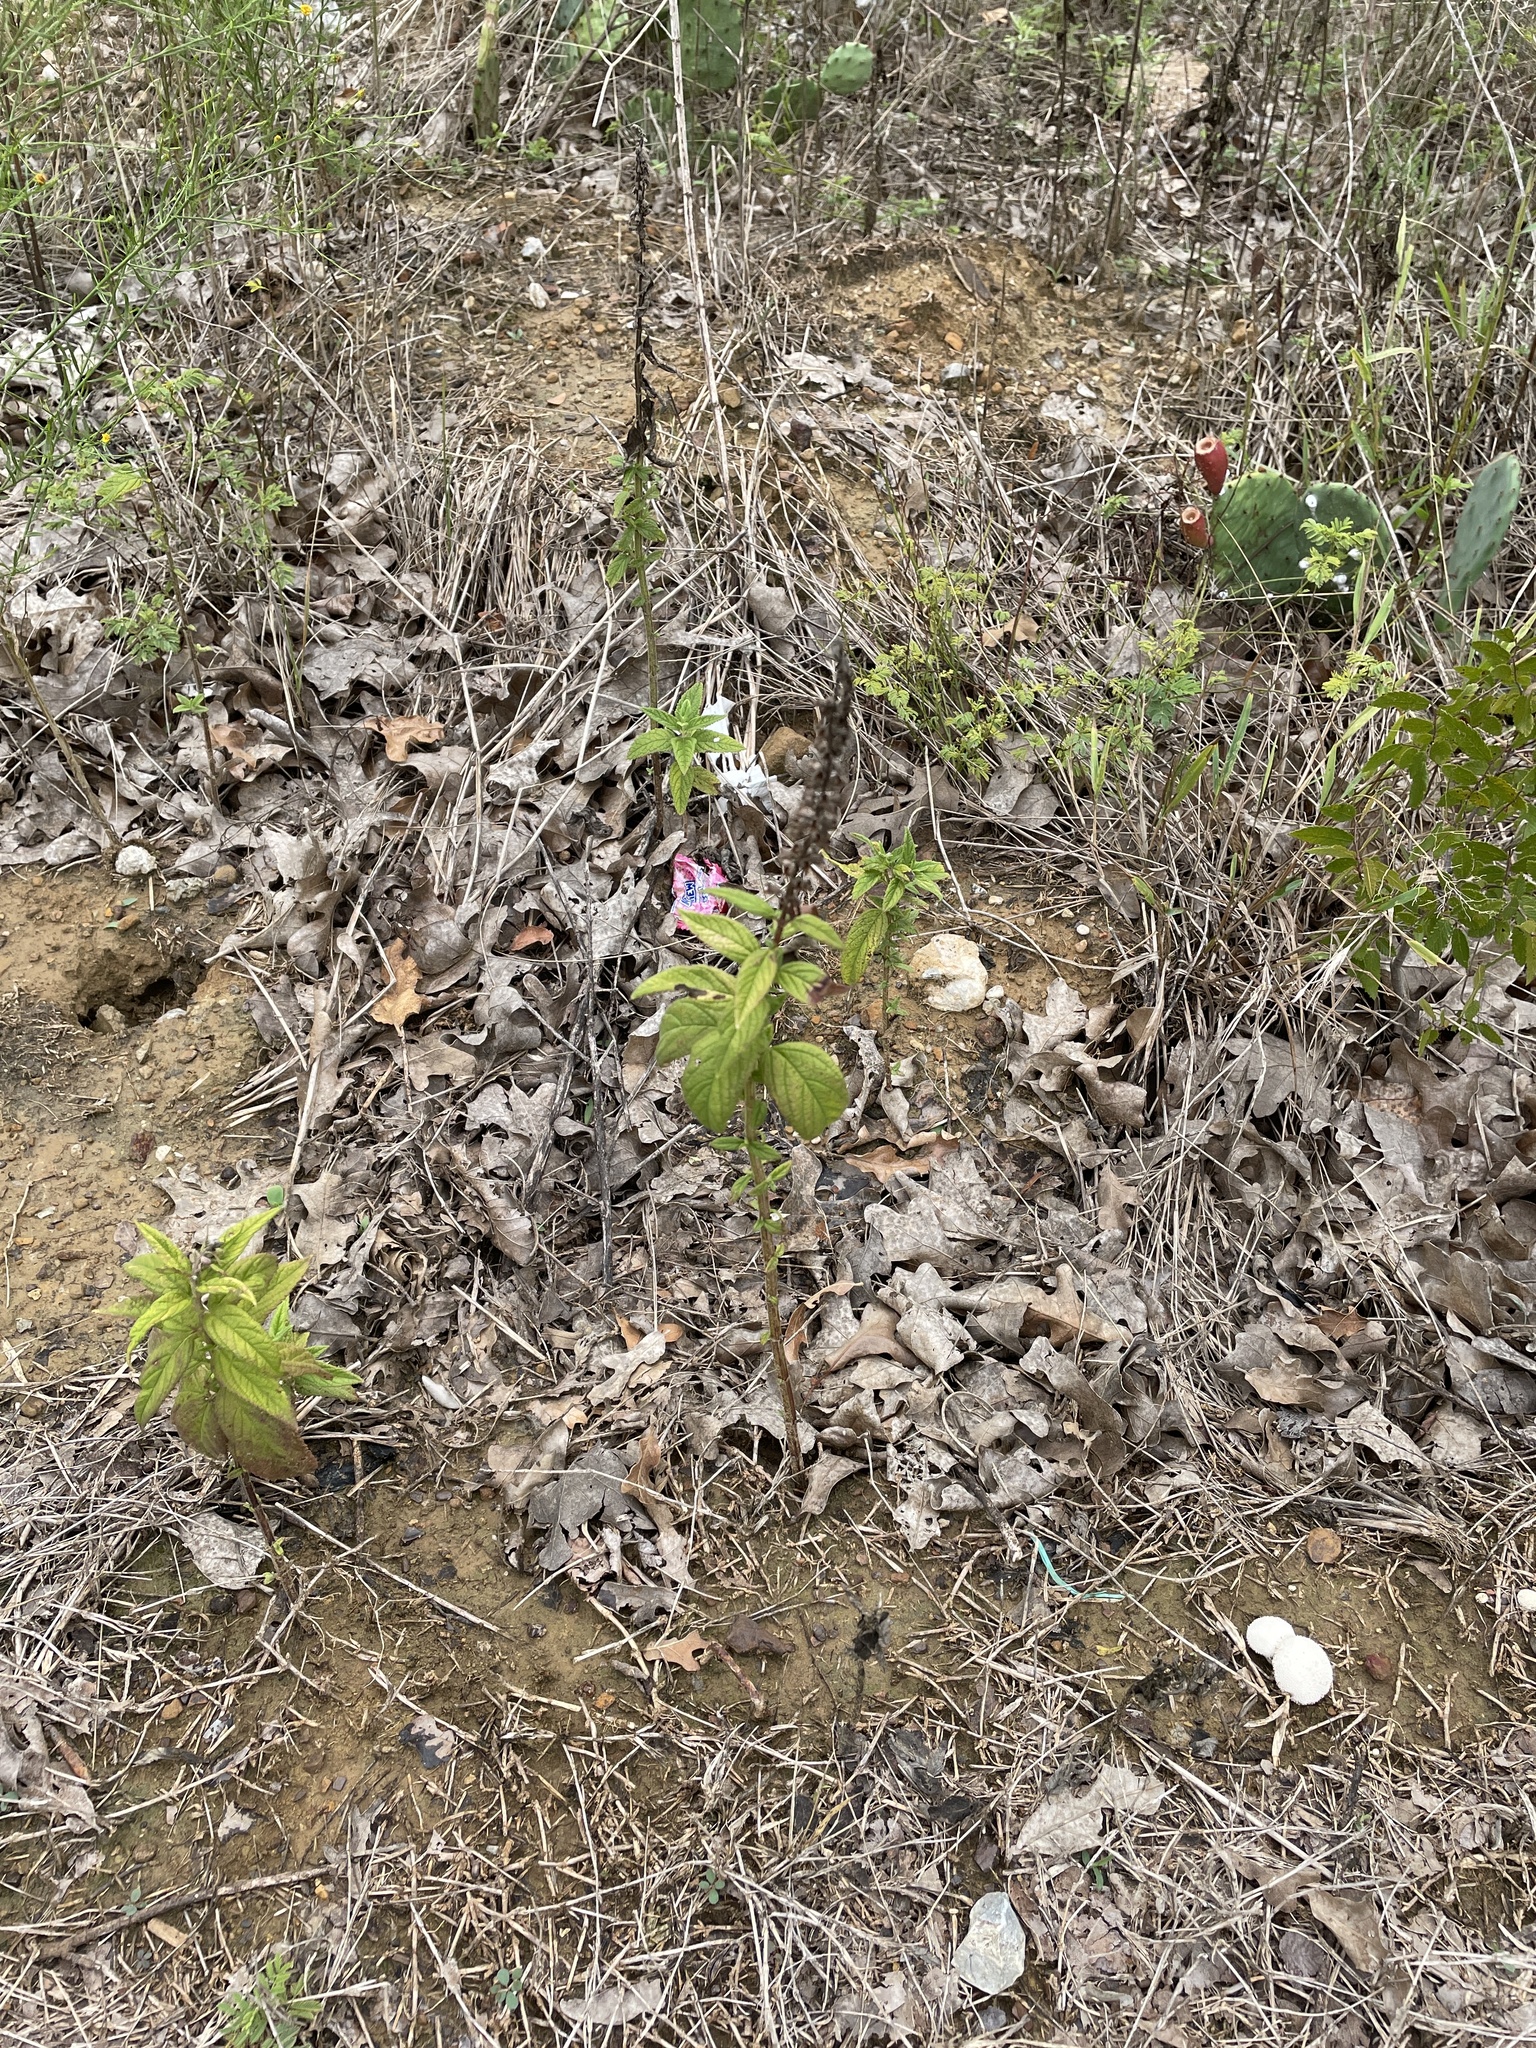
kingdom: Plantae
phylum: Tracheophyta
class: Magnoliopsida
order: Lamiales
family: Lamiaceae
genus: Teucrium
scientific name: Teucrium canadense
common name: American germander
